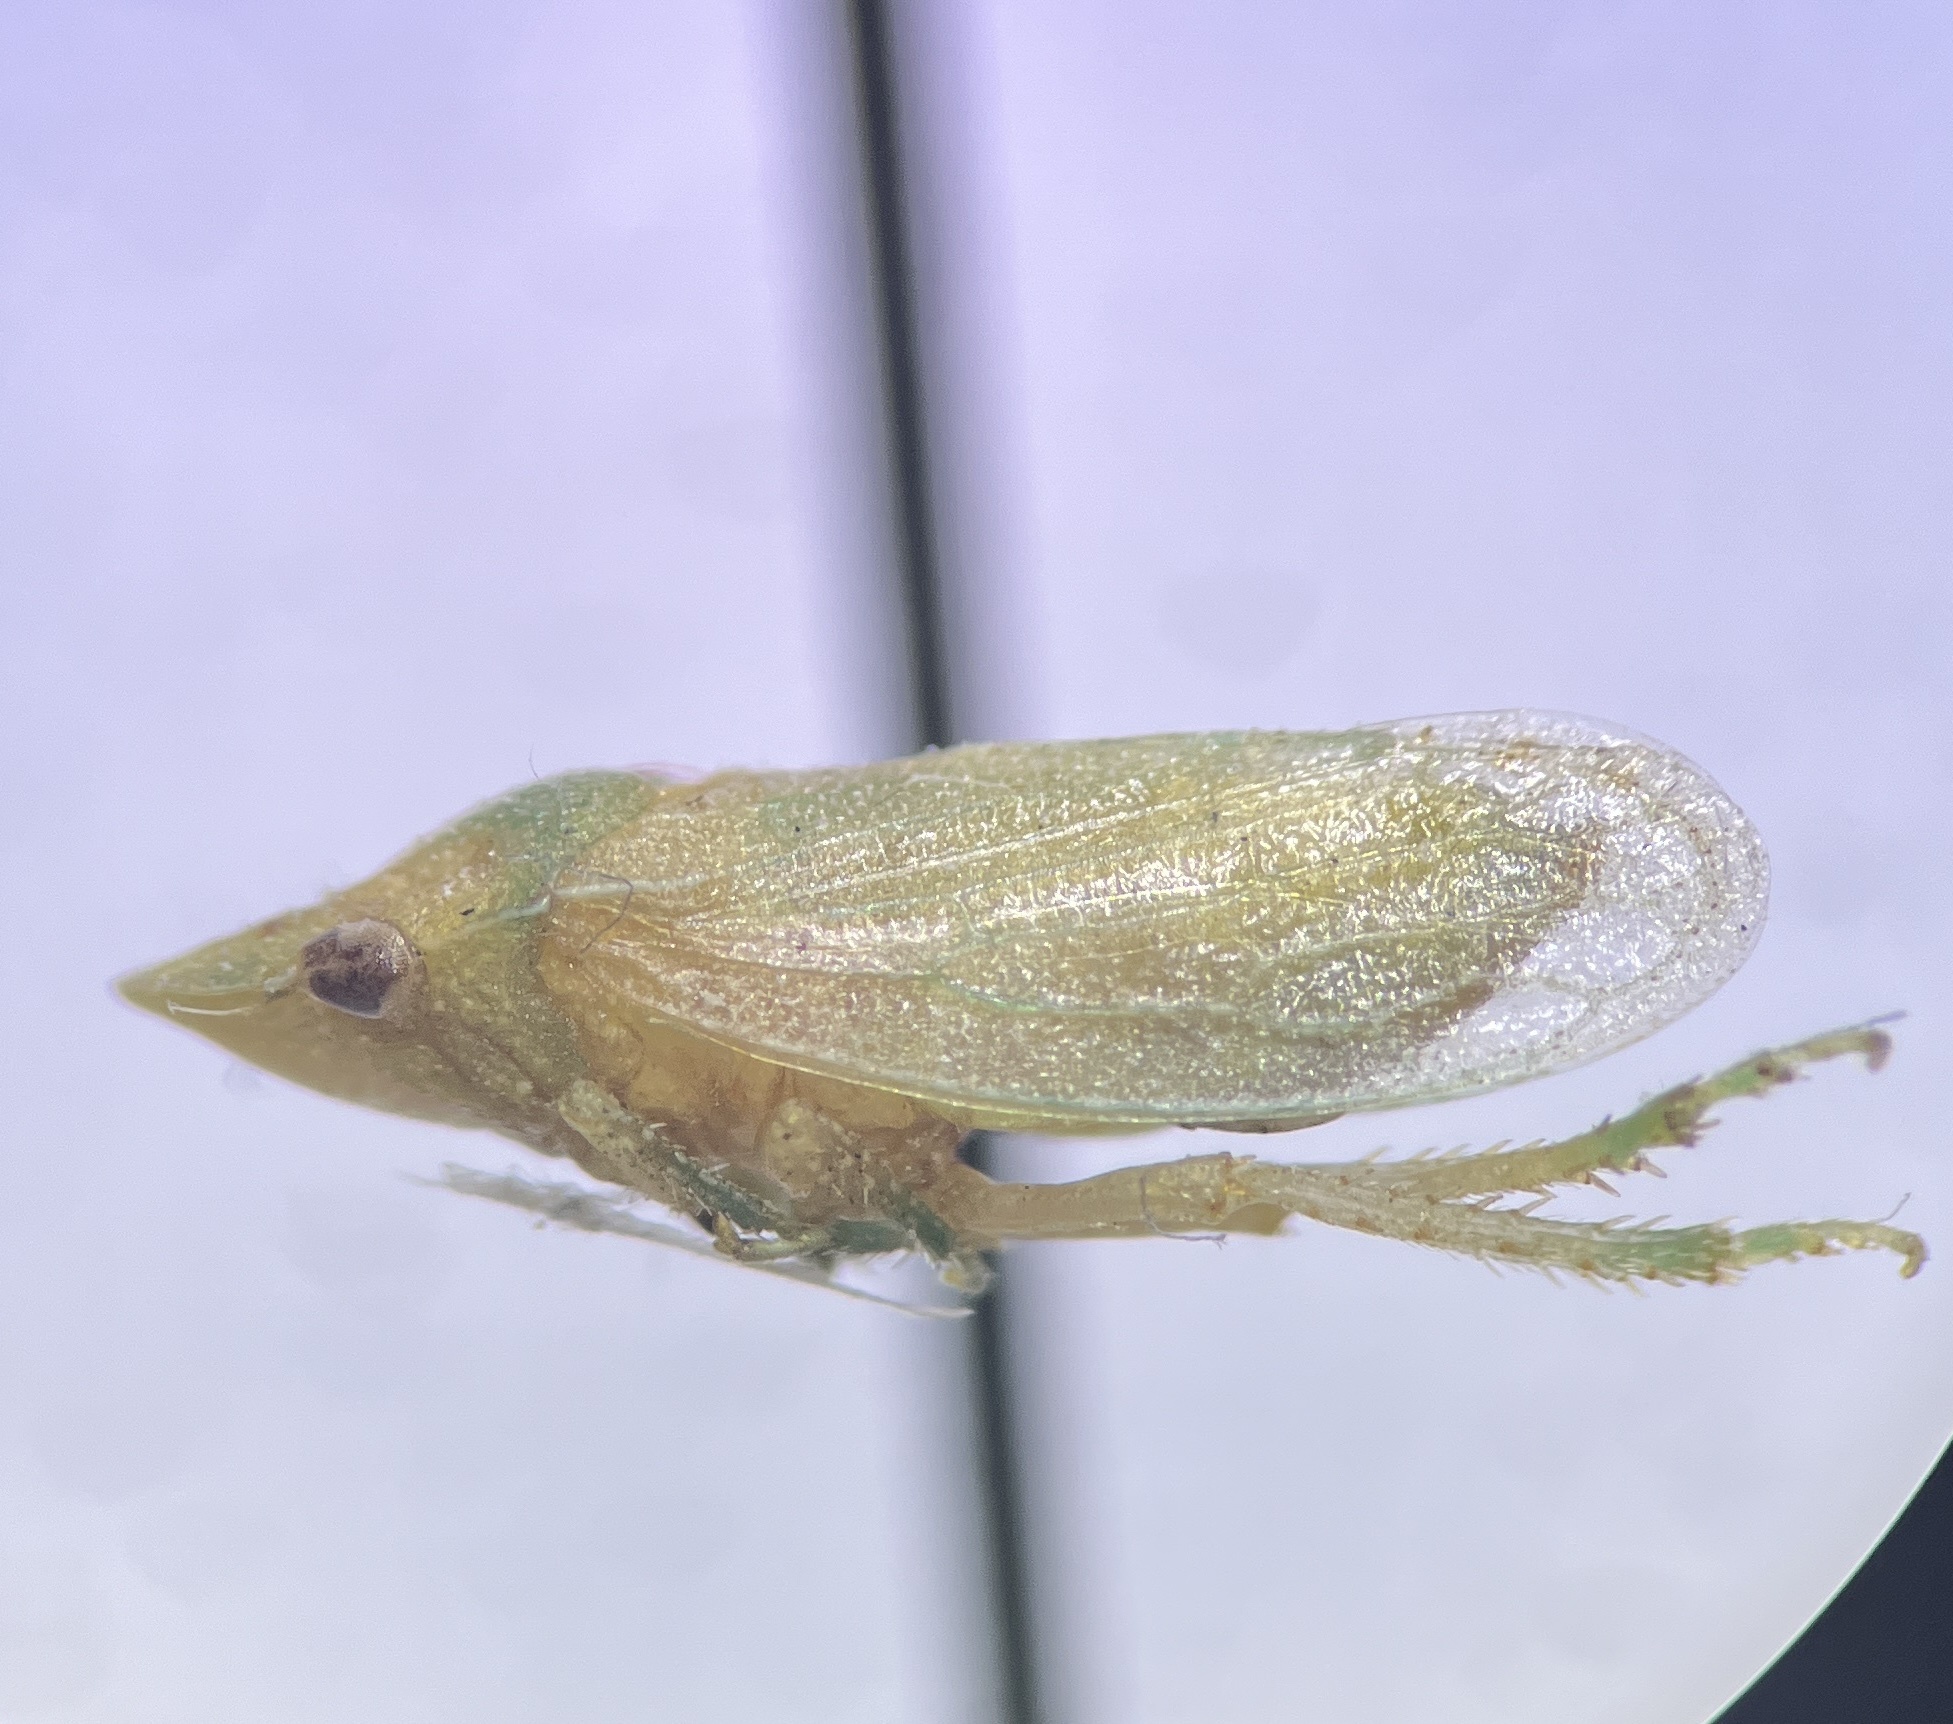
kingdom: Animalia
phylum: Arthropoda
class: Insecta
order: Hemiptera
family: Cicadellidae
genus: Xerophloea
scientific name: Xerophloea peltata
